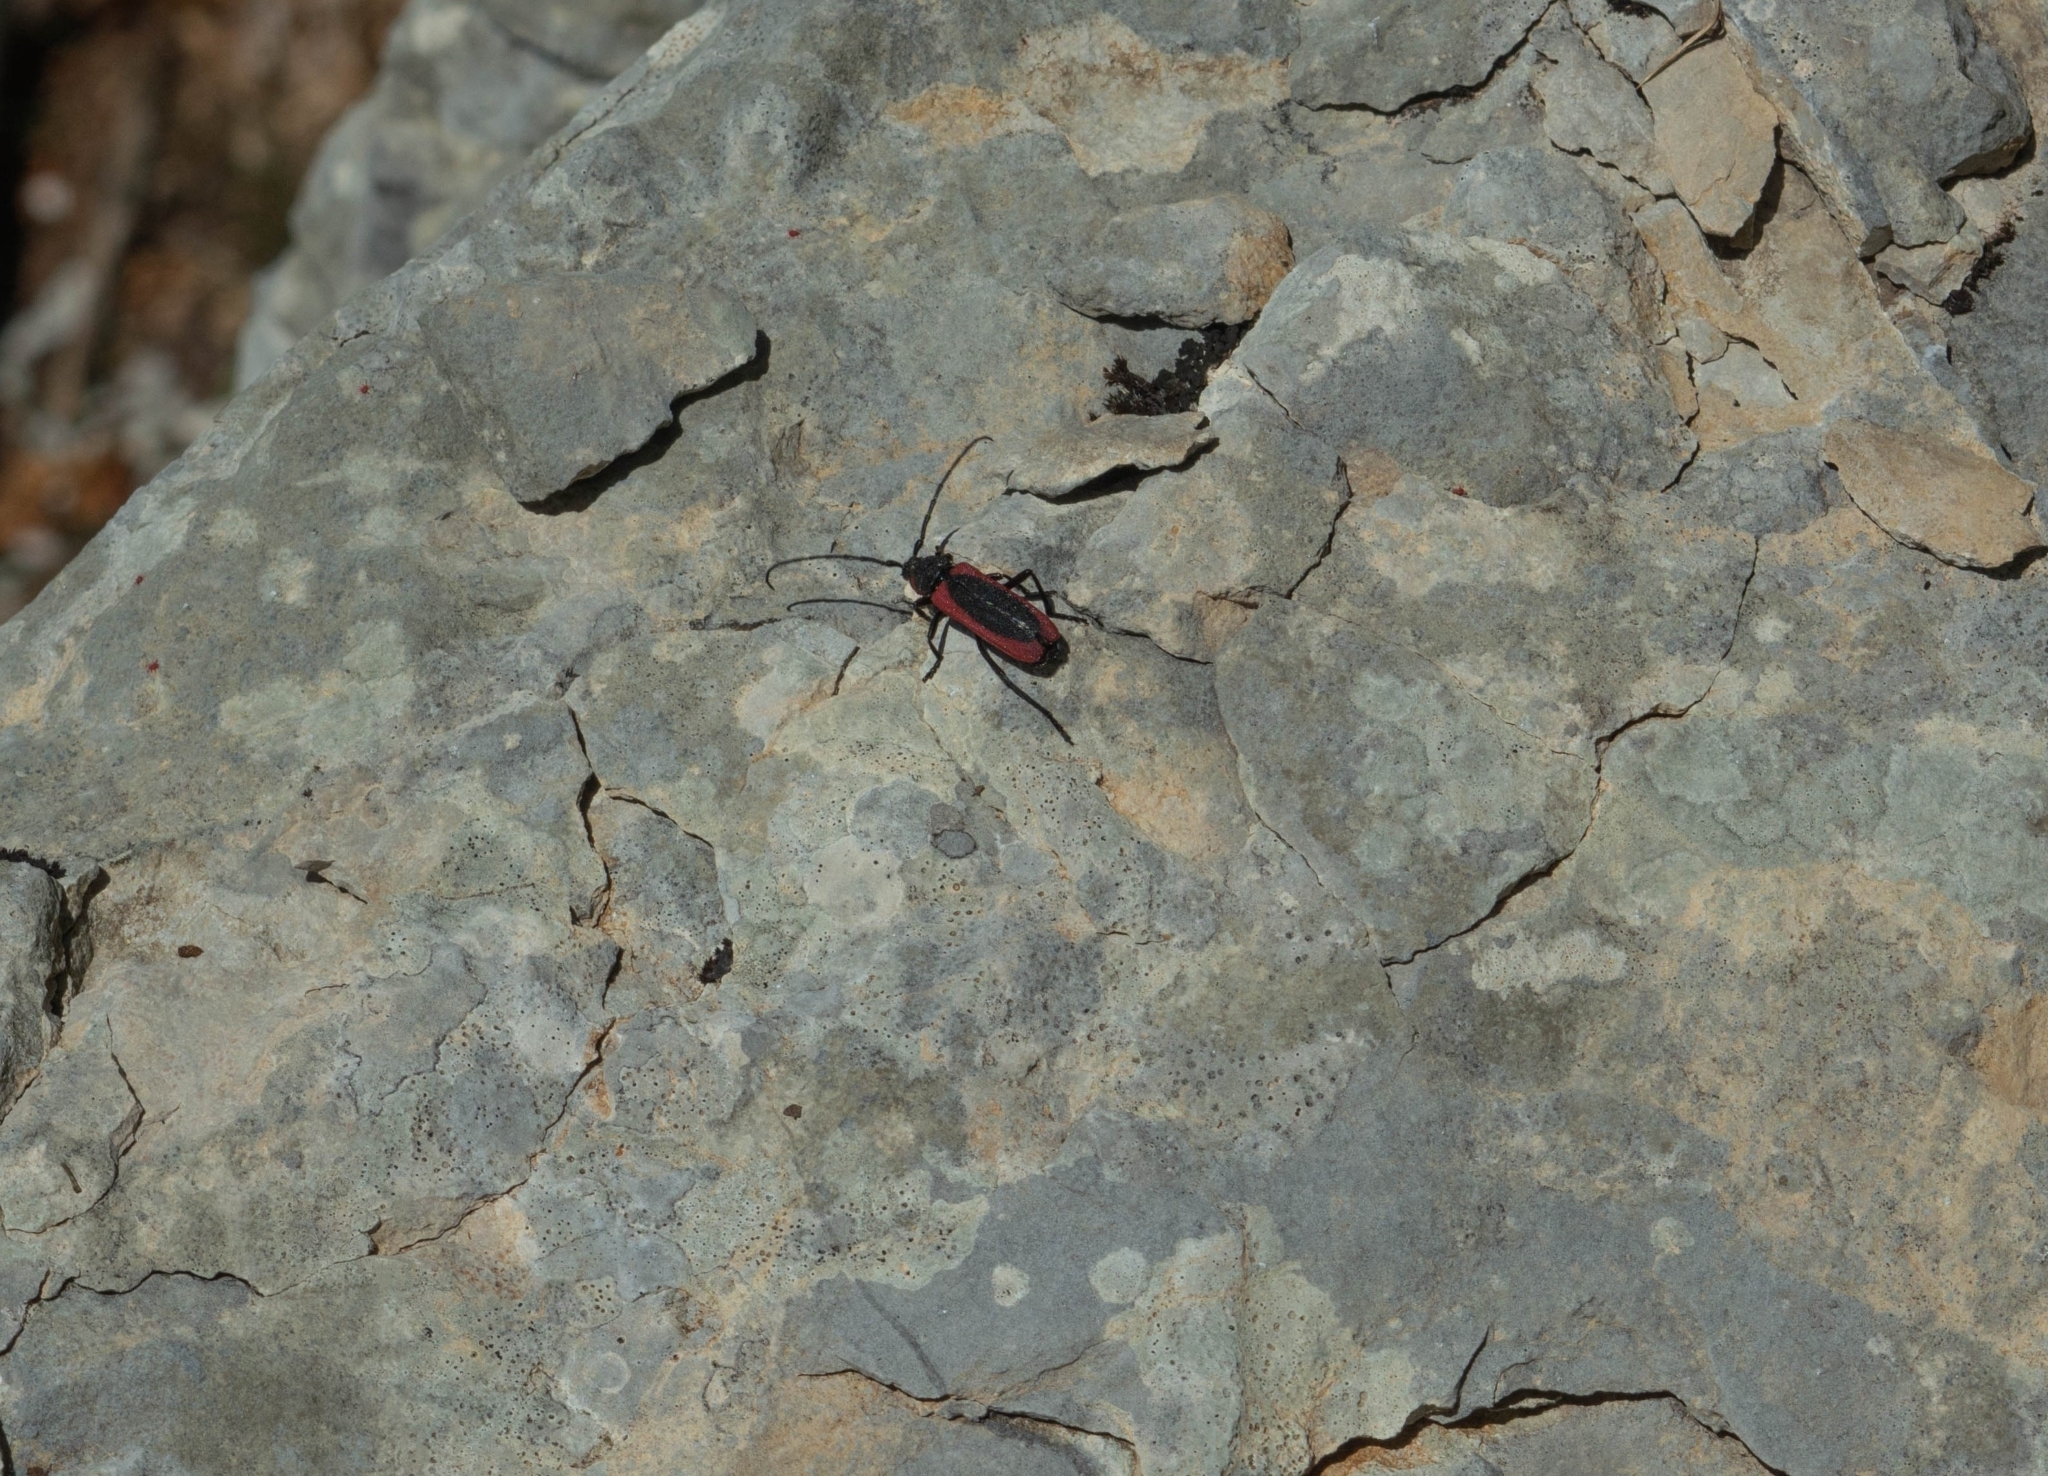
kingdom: Animalia
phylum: Arthropoda
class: Insecta
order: Coleoptera
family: Cerambycidae
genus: Purpuricenus
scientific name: Purpuricenus kaehleri
